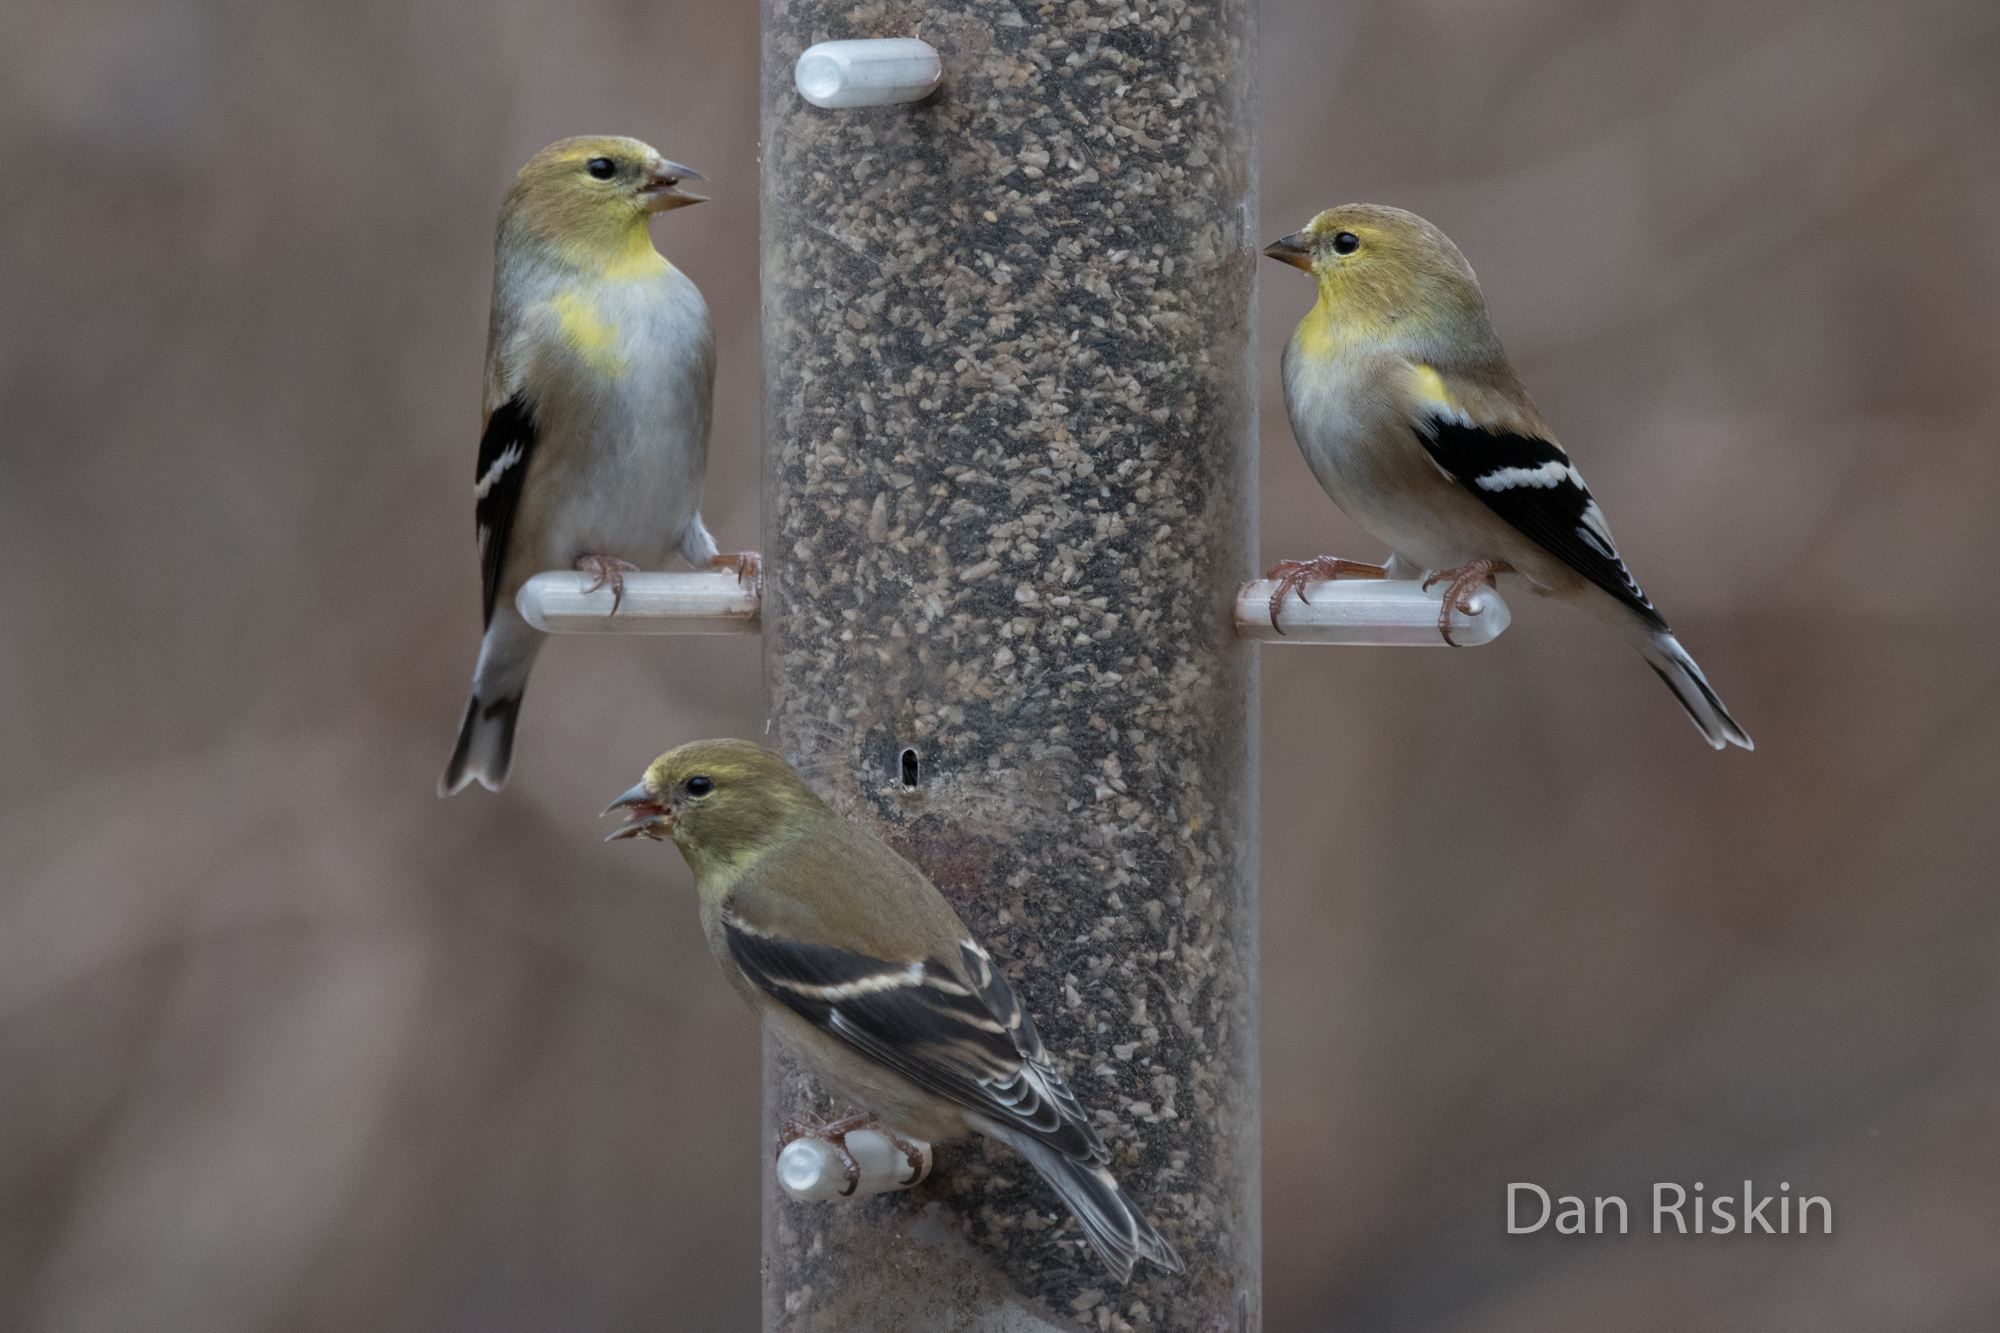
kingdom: Animalia
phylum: Chordata
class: Aves
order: Passeriformes
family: Fringillidae
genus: Spinus
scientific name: Spinus tristis
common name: American goldfinch
